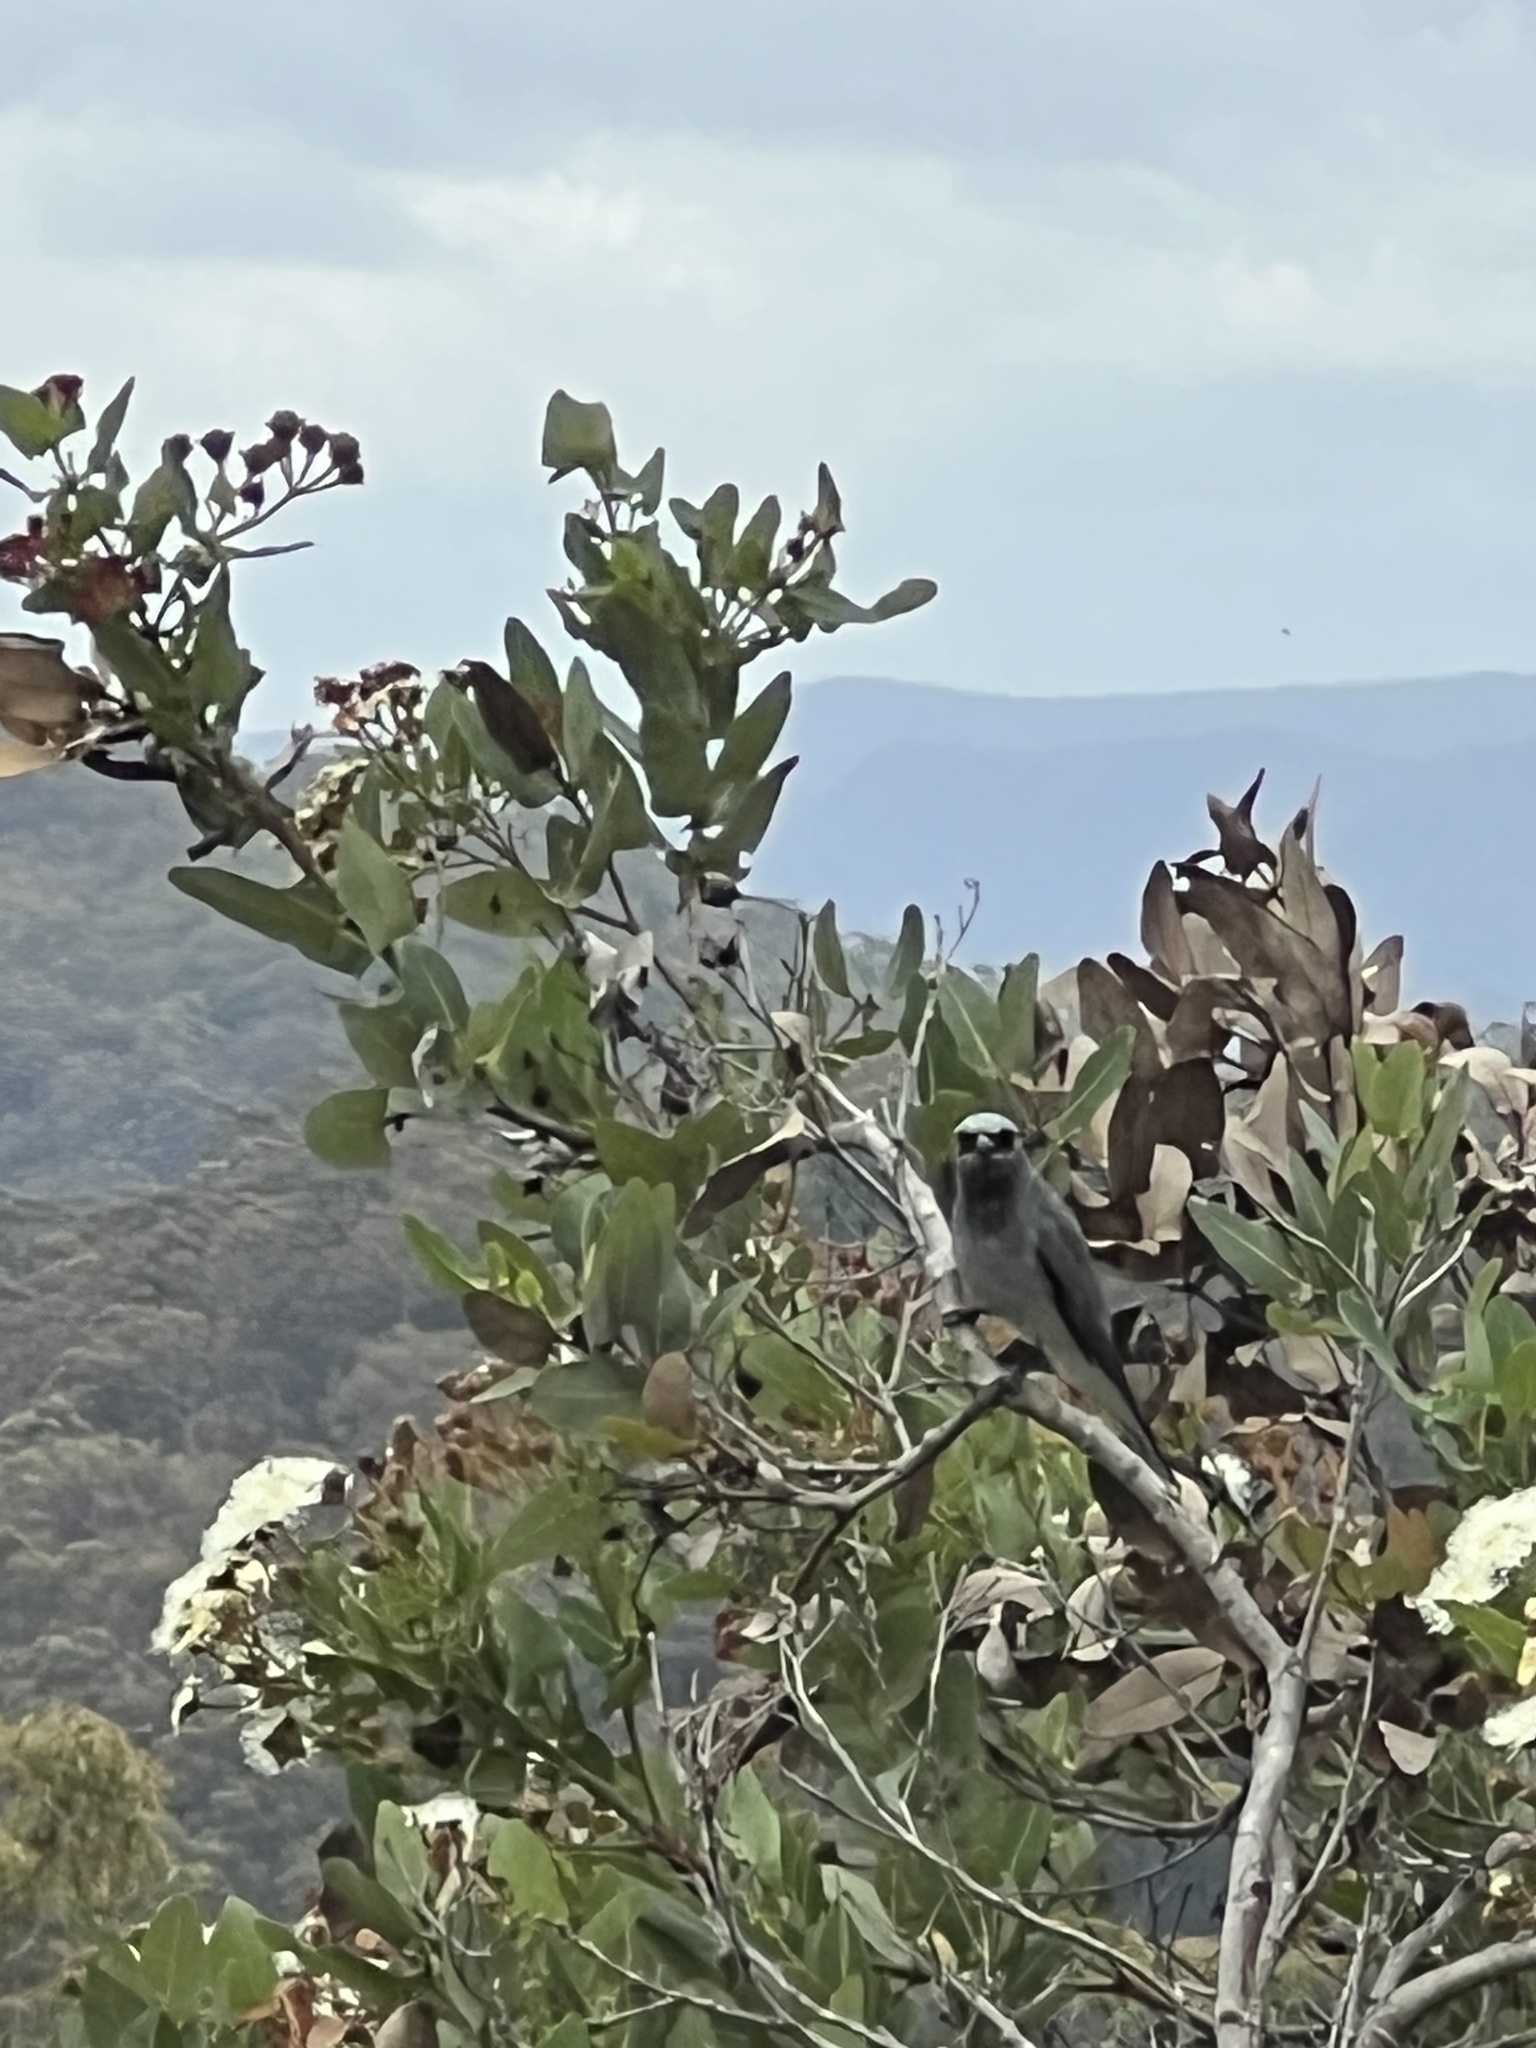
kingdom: Animalia
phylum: Chordata
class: Aves
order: Passeriformes
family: Campephagidae
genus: Coracina
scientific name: Coracina papuensis
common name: White-bellied cuckooshrike
